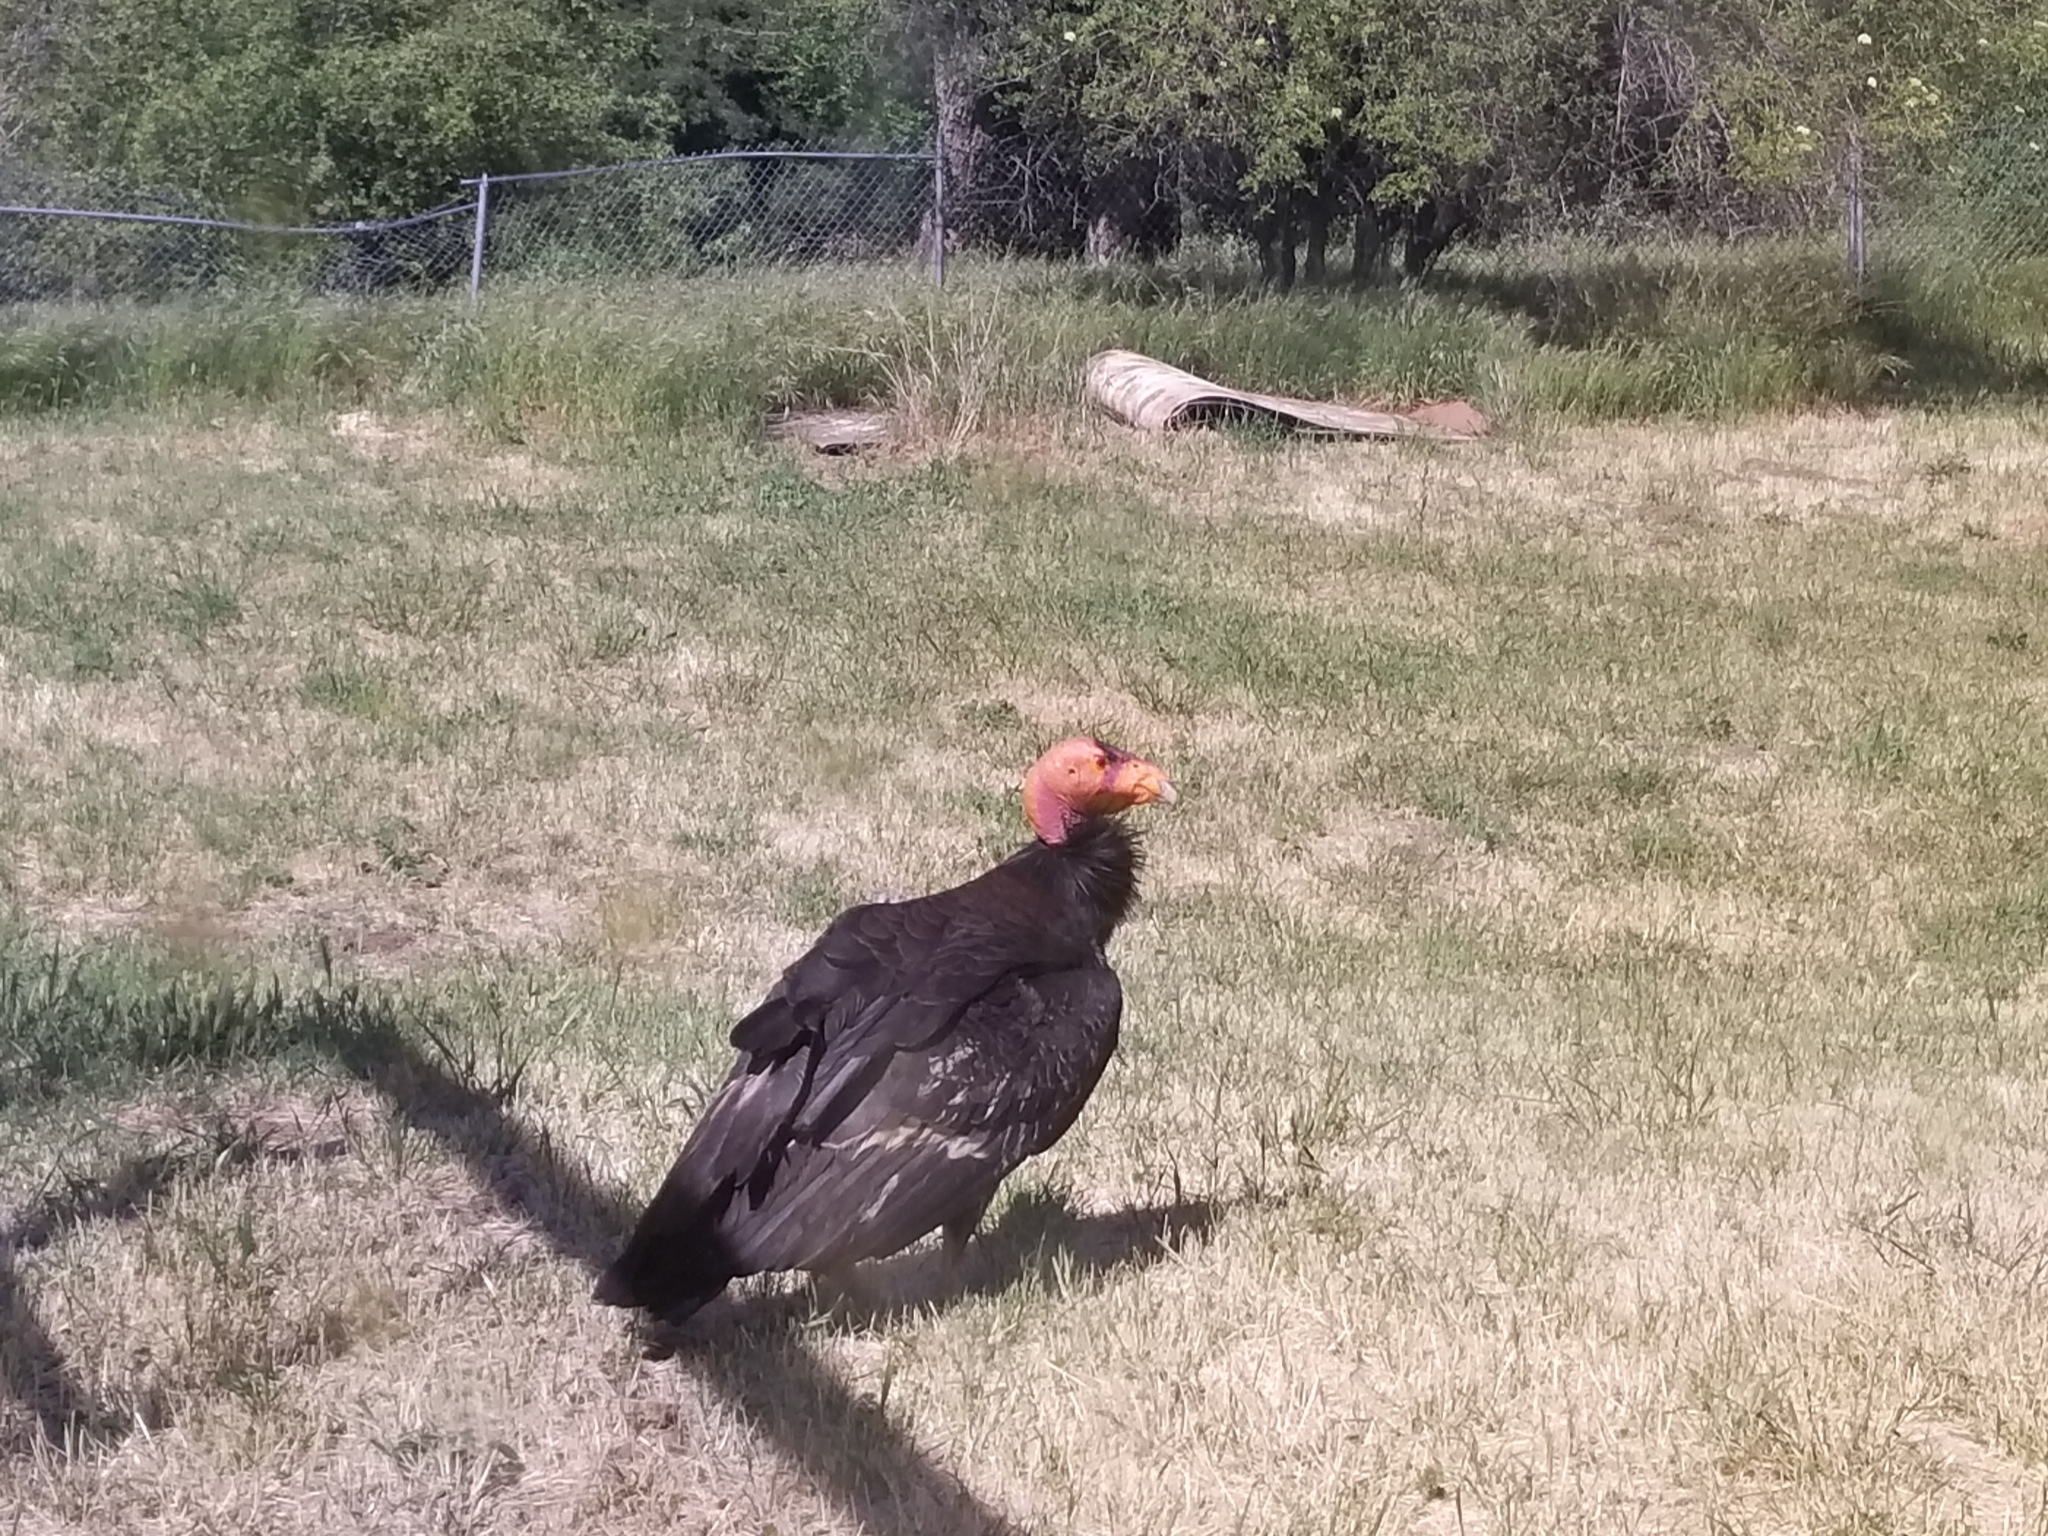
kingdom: Animalia
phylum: Chordata
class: Aves
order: Accipitriformes
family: Cathartidae
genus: Gymnogyps
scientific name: Gymnogyps californianus
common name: California condor
